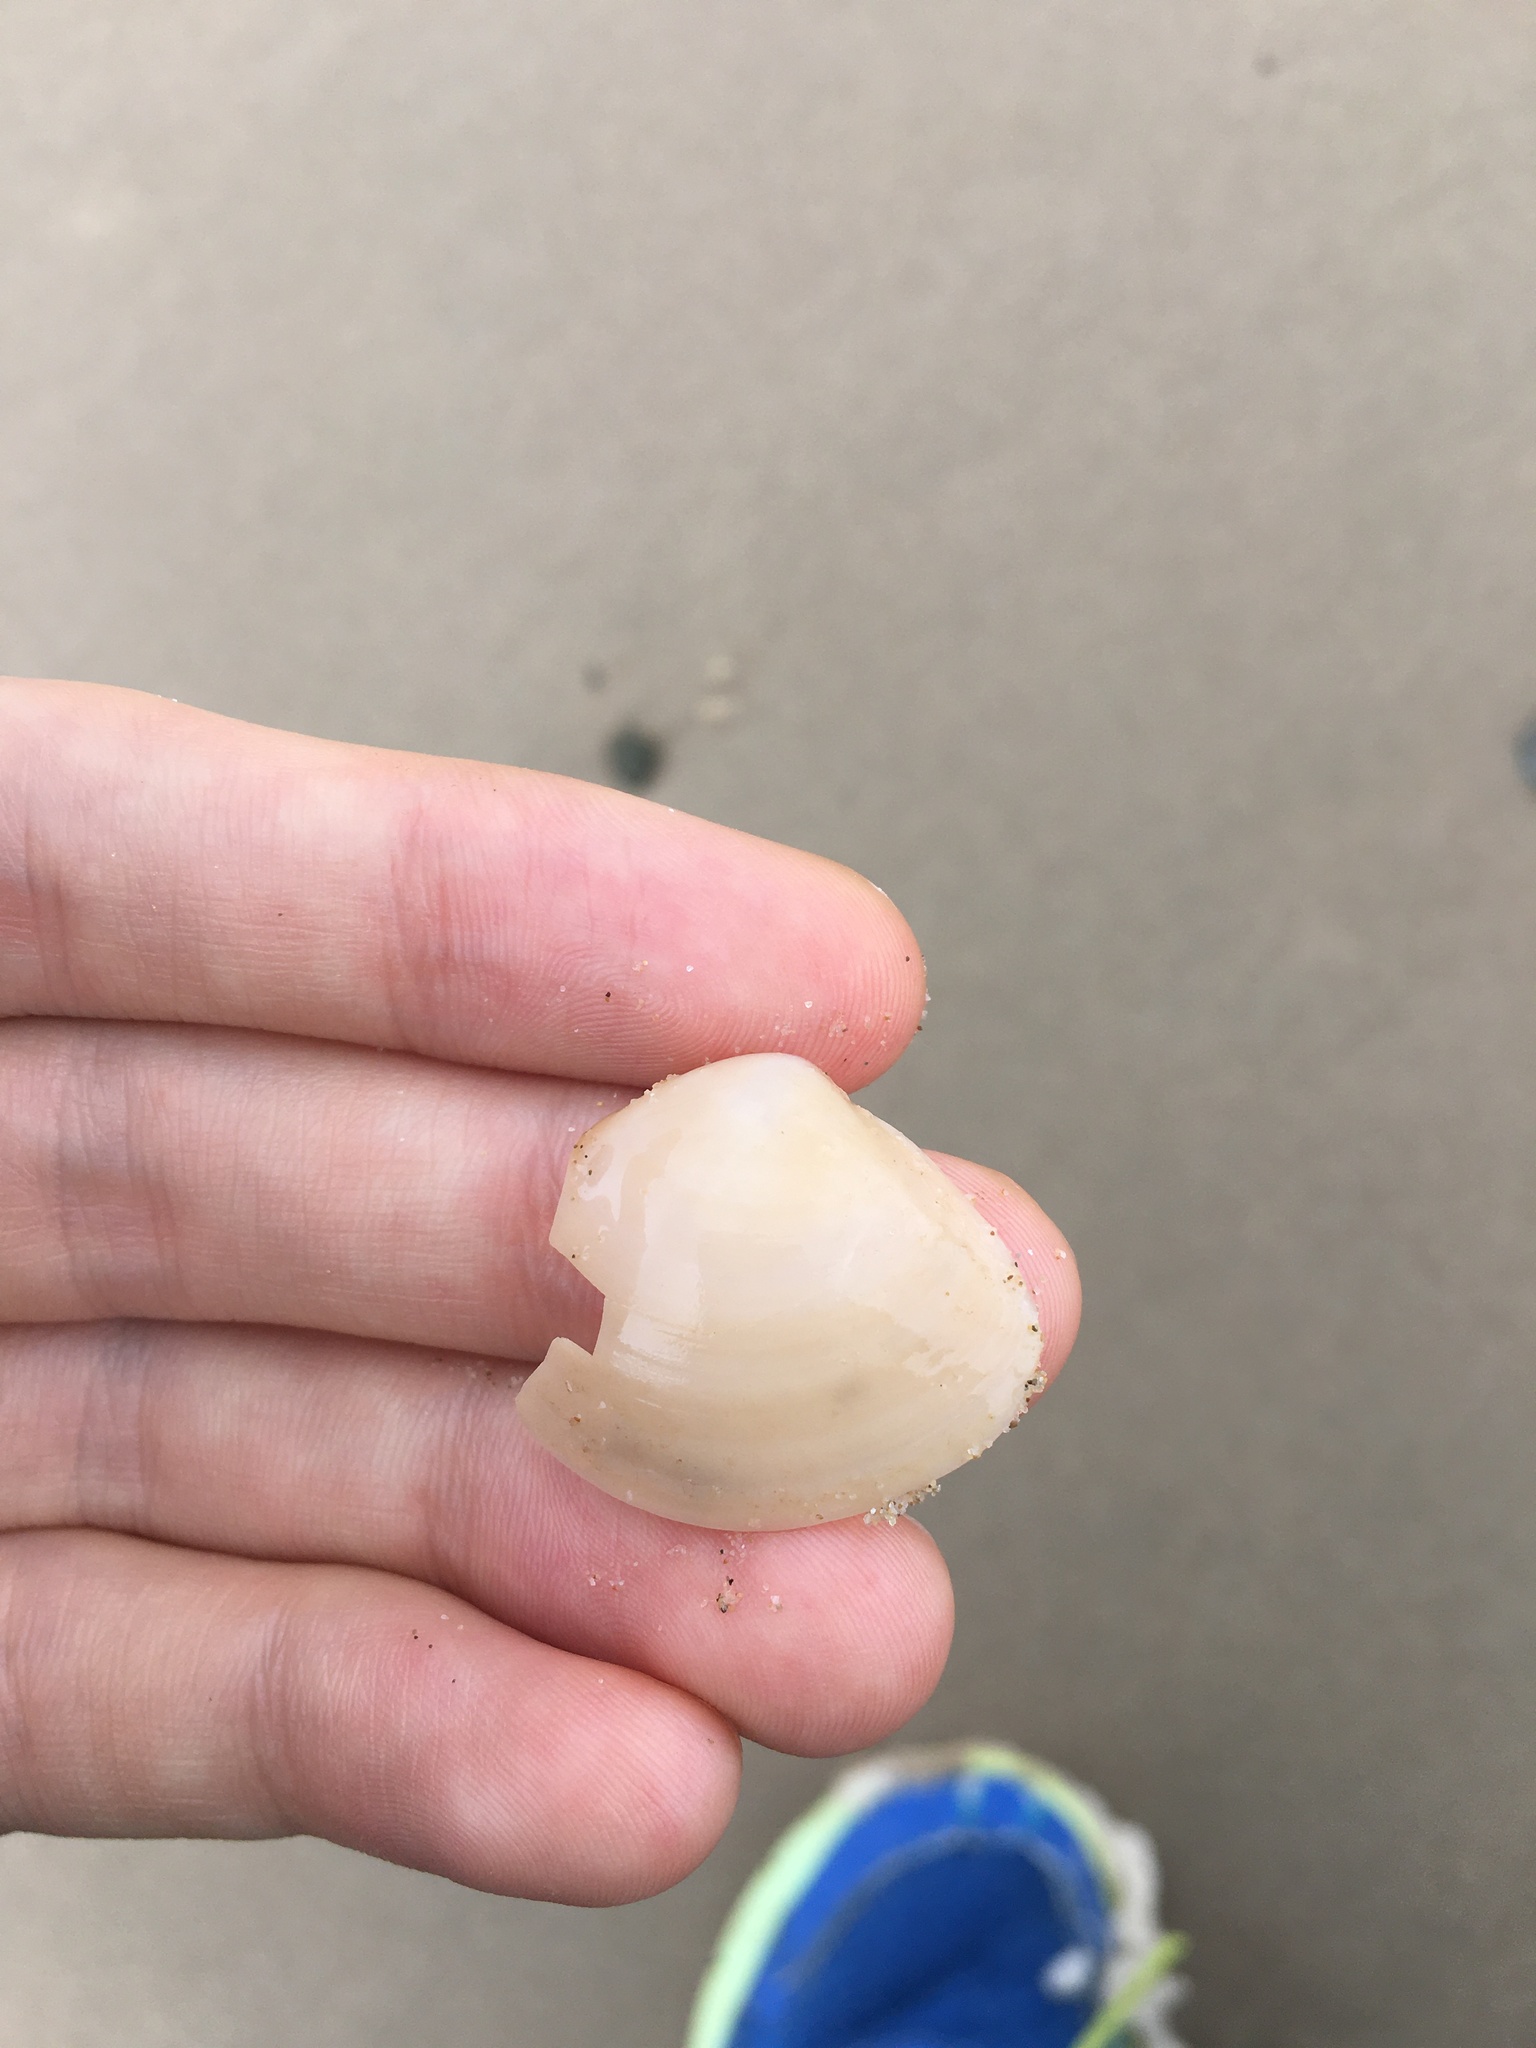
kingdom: Animalia
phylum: Mollusca
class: Bivalvia
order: Venerida
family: Mactridae
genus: Austromactra
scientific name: Austromactra rufescens
